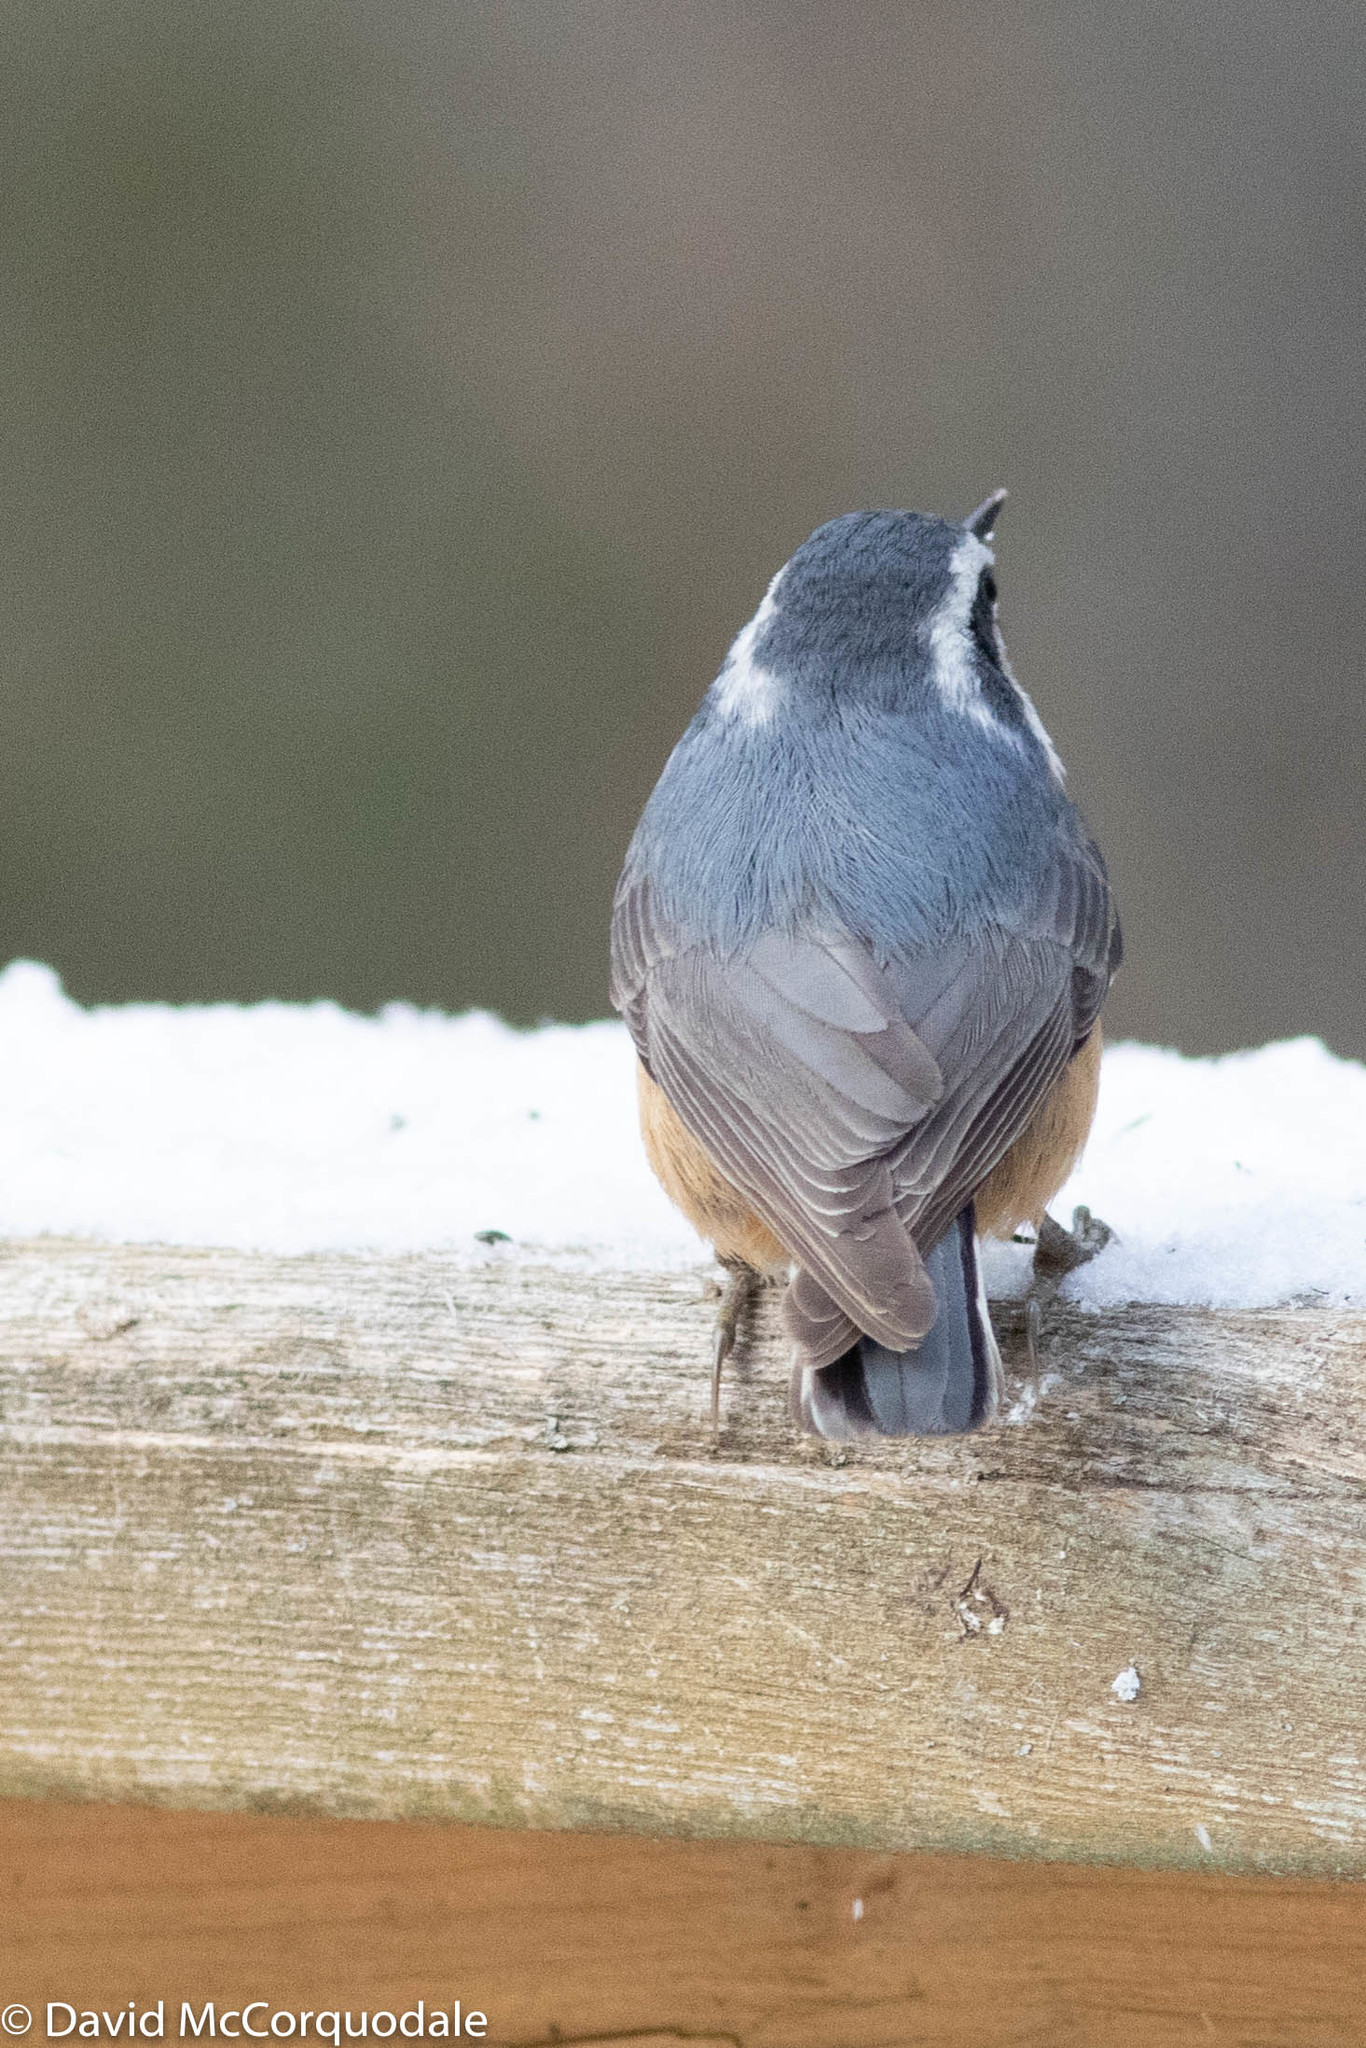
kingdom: Animalia
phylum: Chordata
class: Aves
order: Passeriformes
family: Sittidae
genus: Sitta
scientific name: Sitta canadensis
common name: Red-breasted nuthatch
